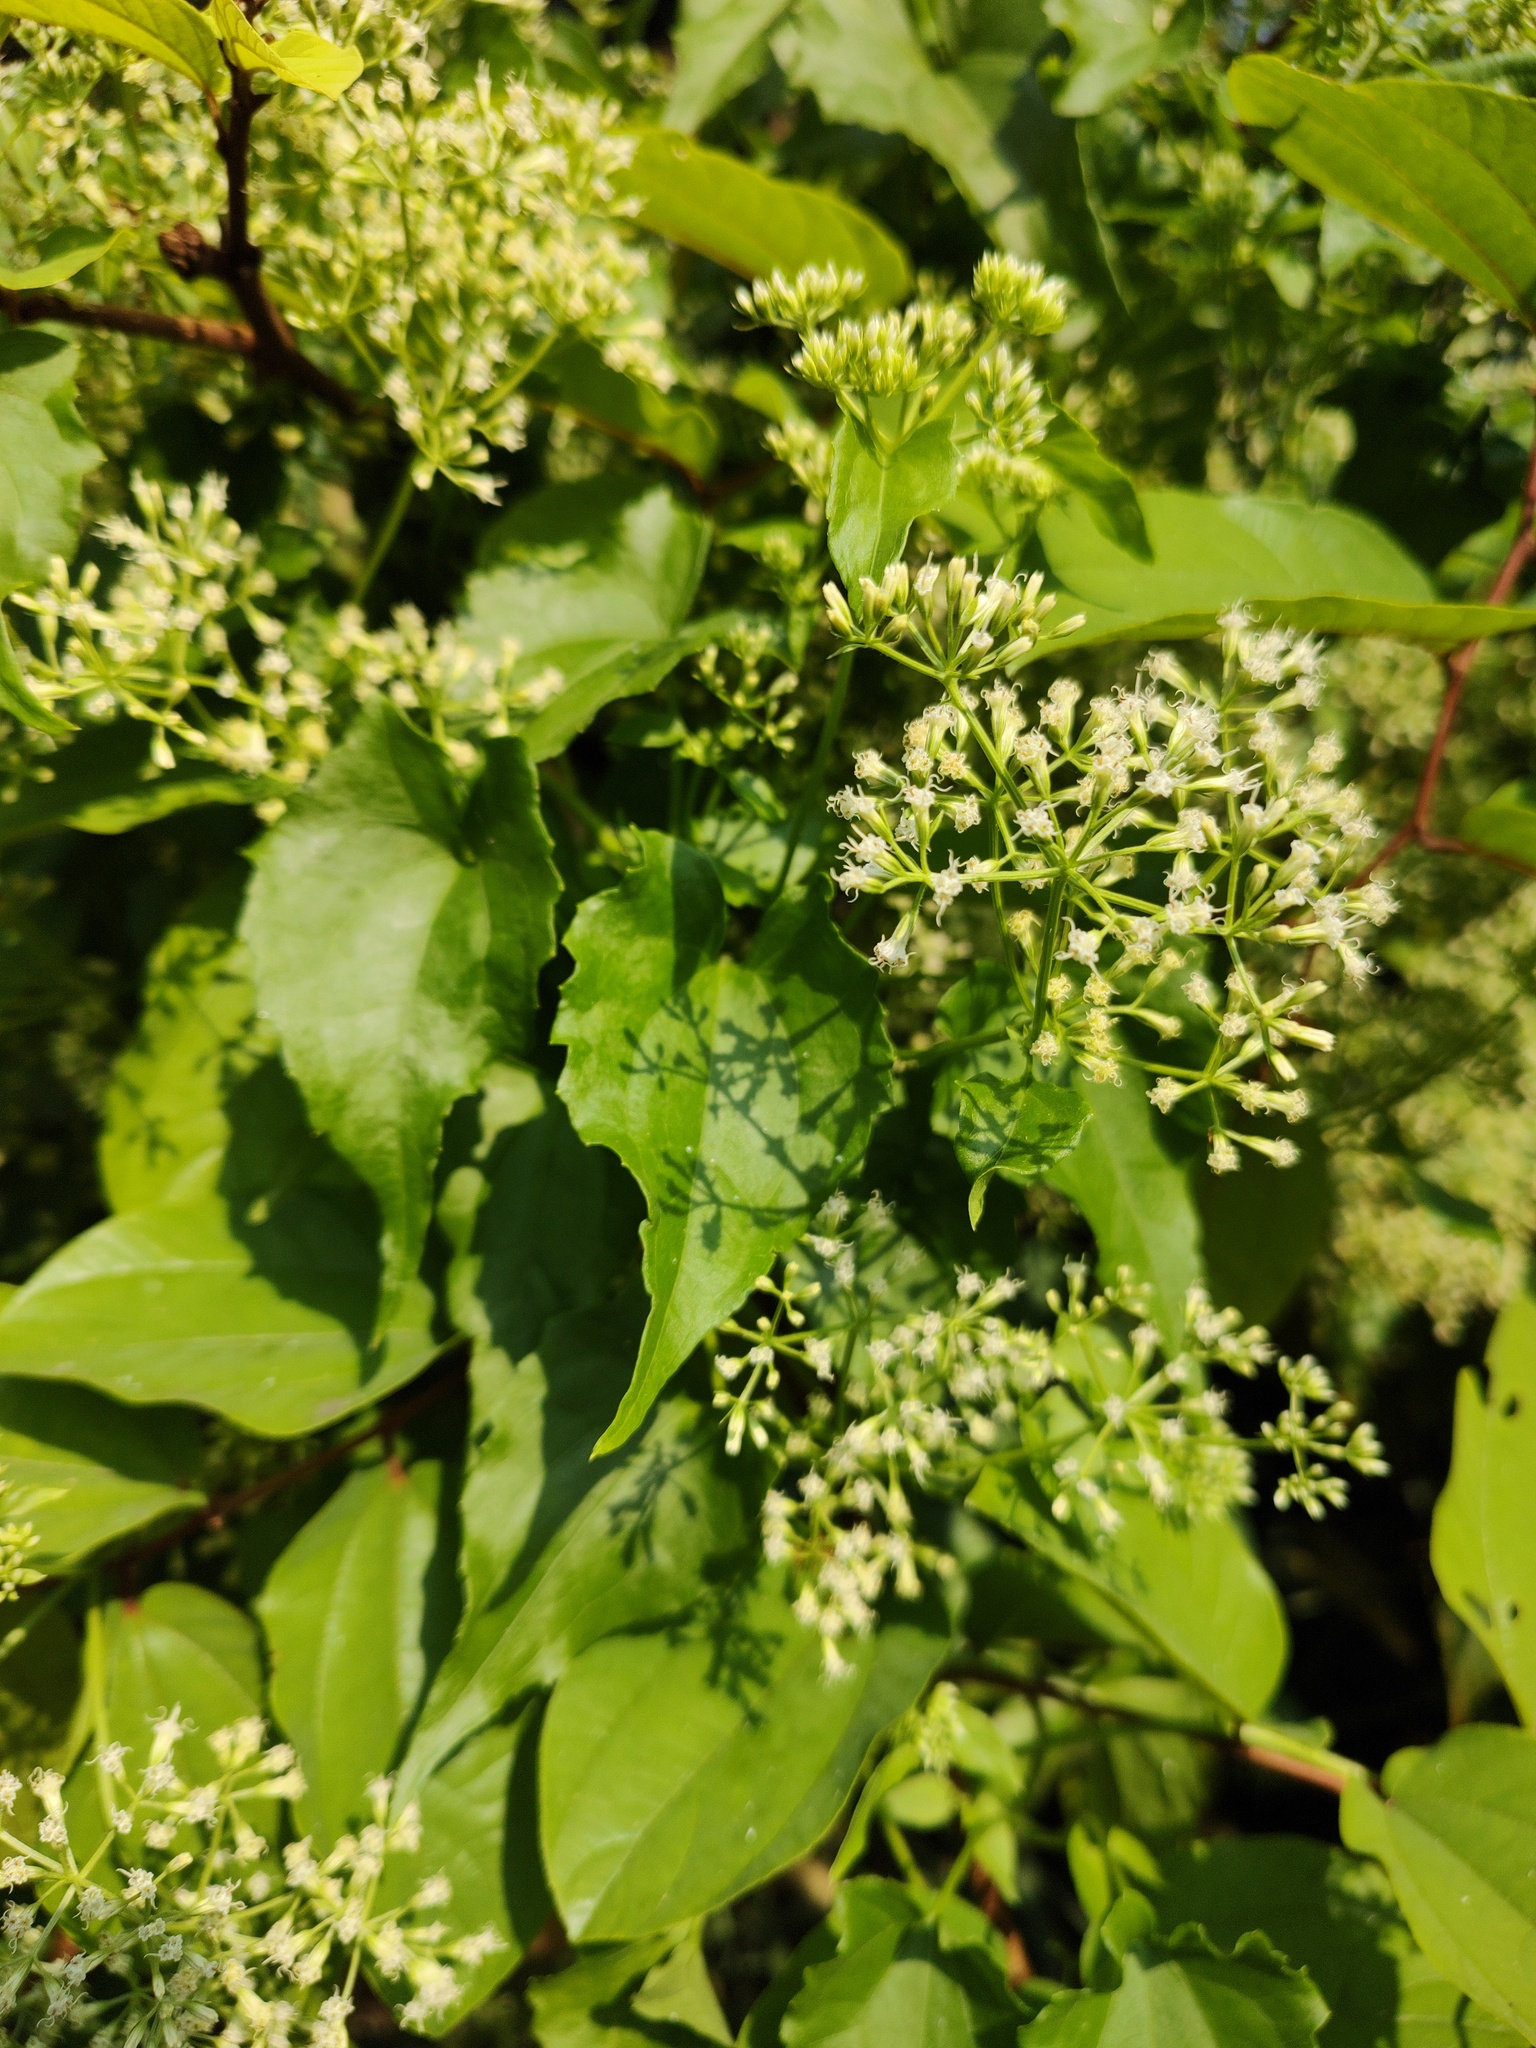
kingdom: Plantae
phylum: Tracheophyta
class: Magnoliopsida
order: Asterales
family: Asteraceae
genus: Mikania
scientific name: Mikania micrantha
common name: Mile-a-minute
